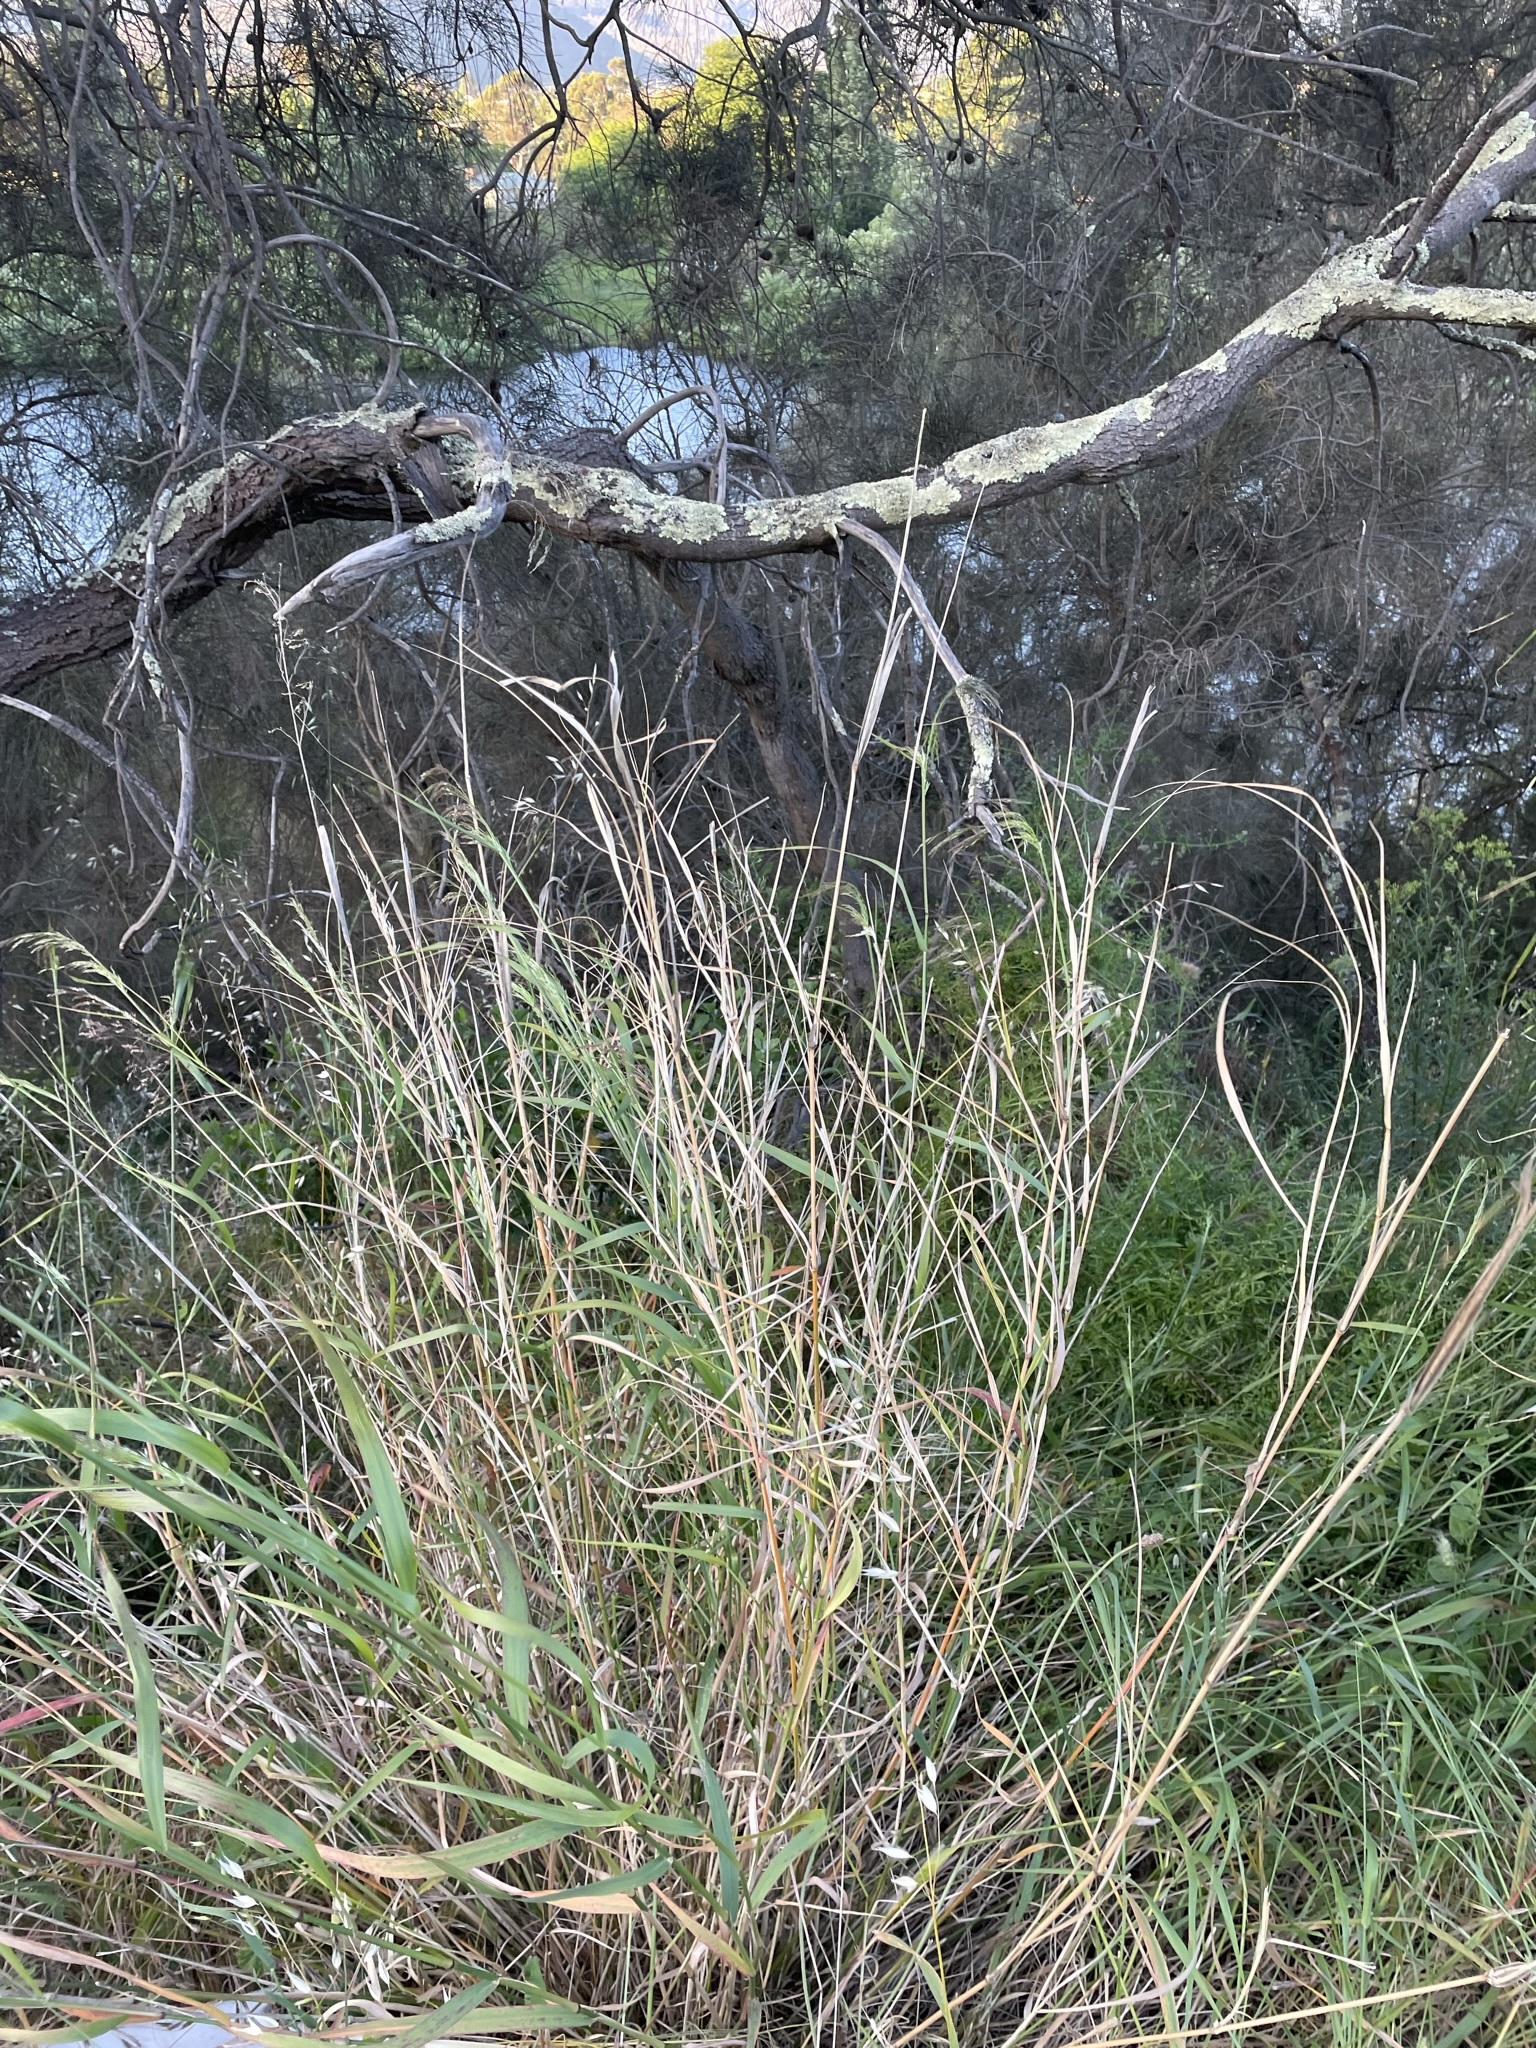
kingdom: Plantae
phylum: Tracheophyta
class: Liliopsida
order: Poales
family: Poaceae
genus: Oloptum
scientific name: Oloptum miliaceum
